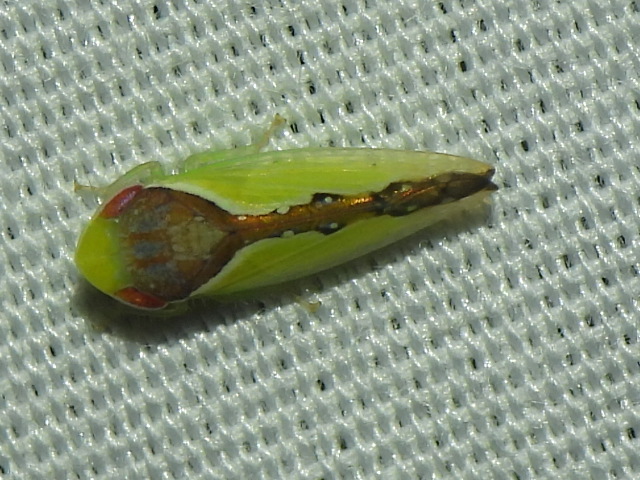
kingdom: Animalia
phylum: Arthropoda
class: Insecta
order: Hemiptera
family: Cicadellidae
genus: Omansobara ing
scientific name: Omansobara ing Omansobara palliolata
